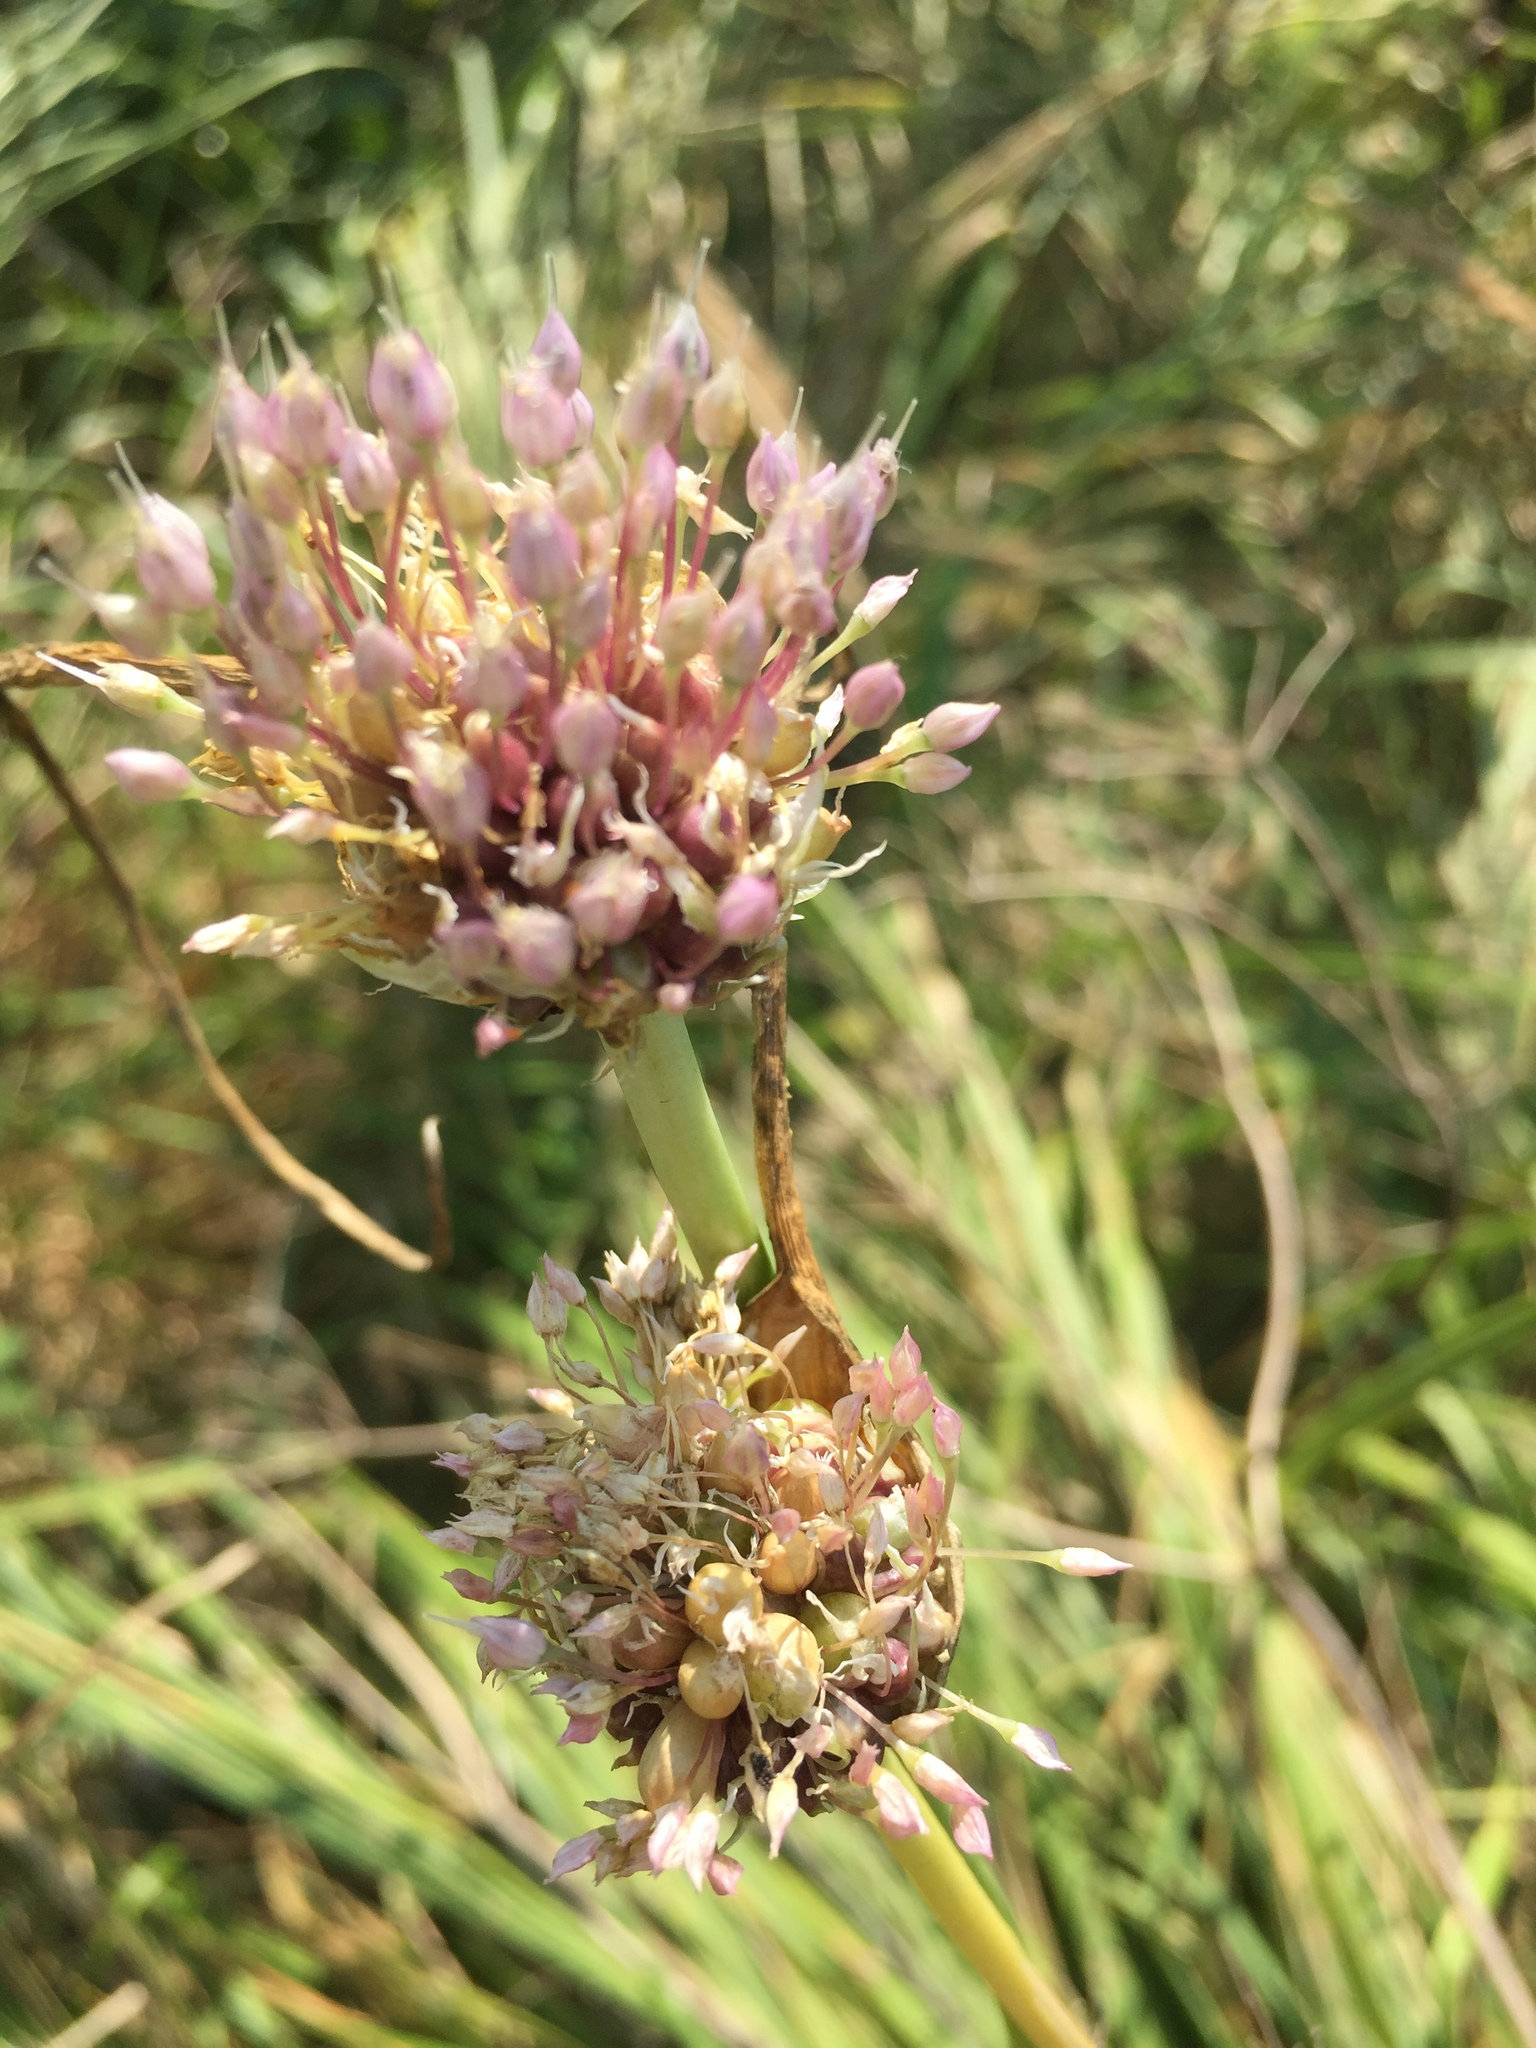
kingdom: Plantae
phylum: Tracheophyta
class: Liliopsida
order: Asparagales
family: Amaryllidaceae
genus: Allium
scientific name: Allium sativum
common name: Garlic
